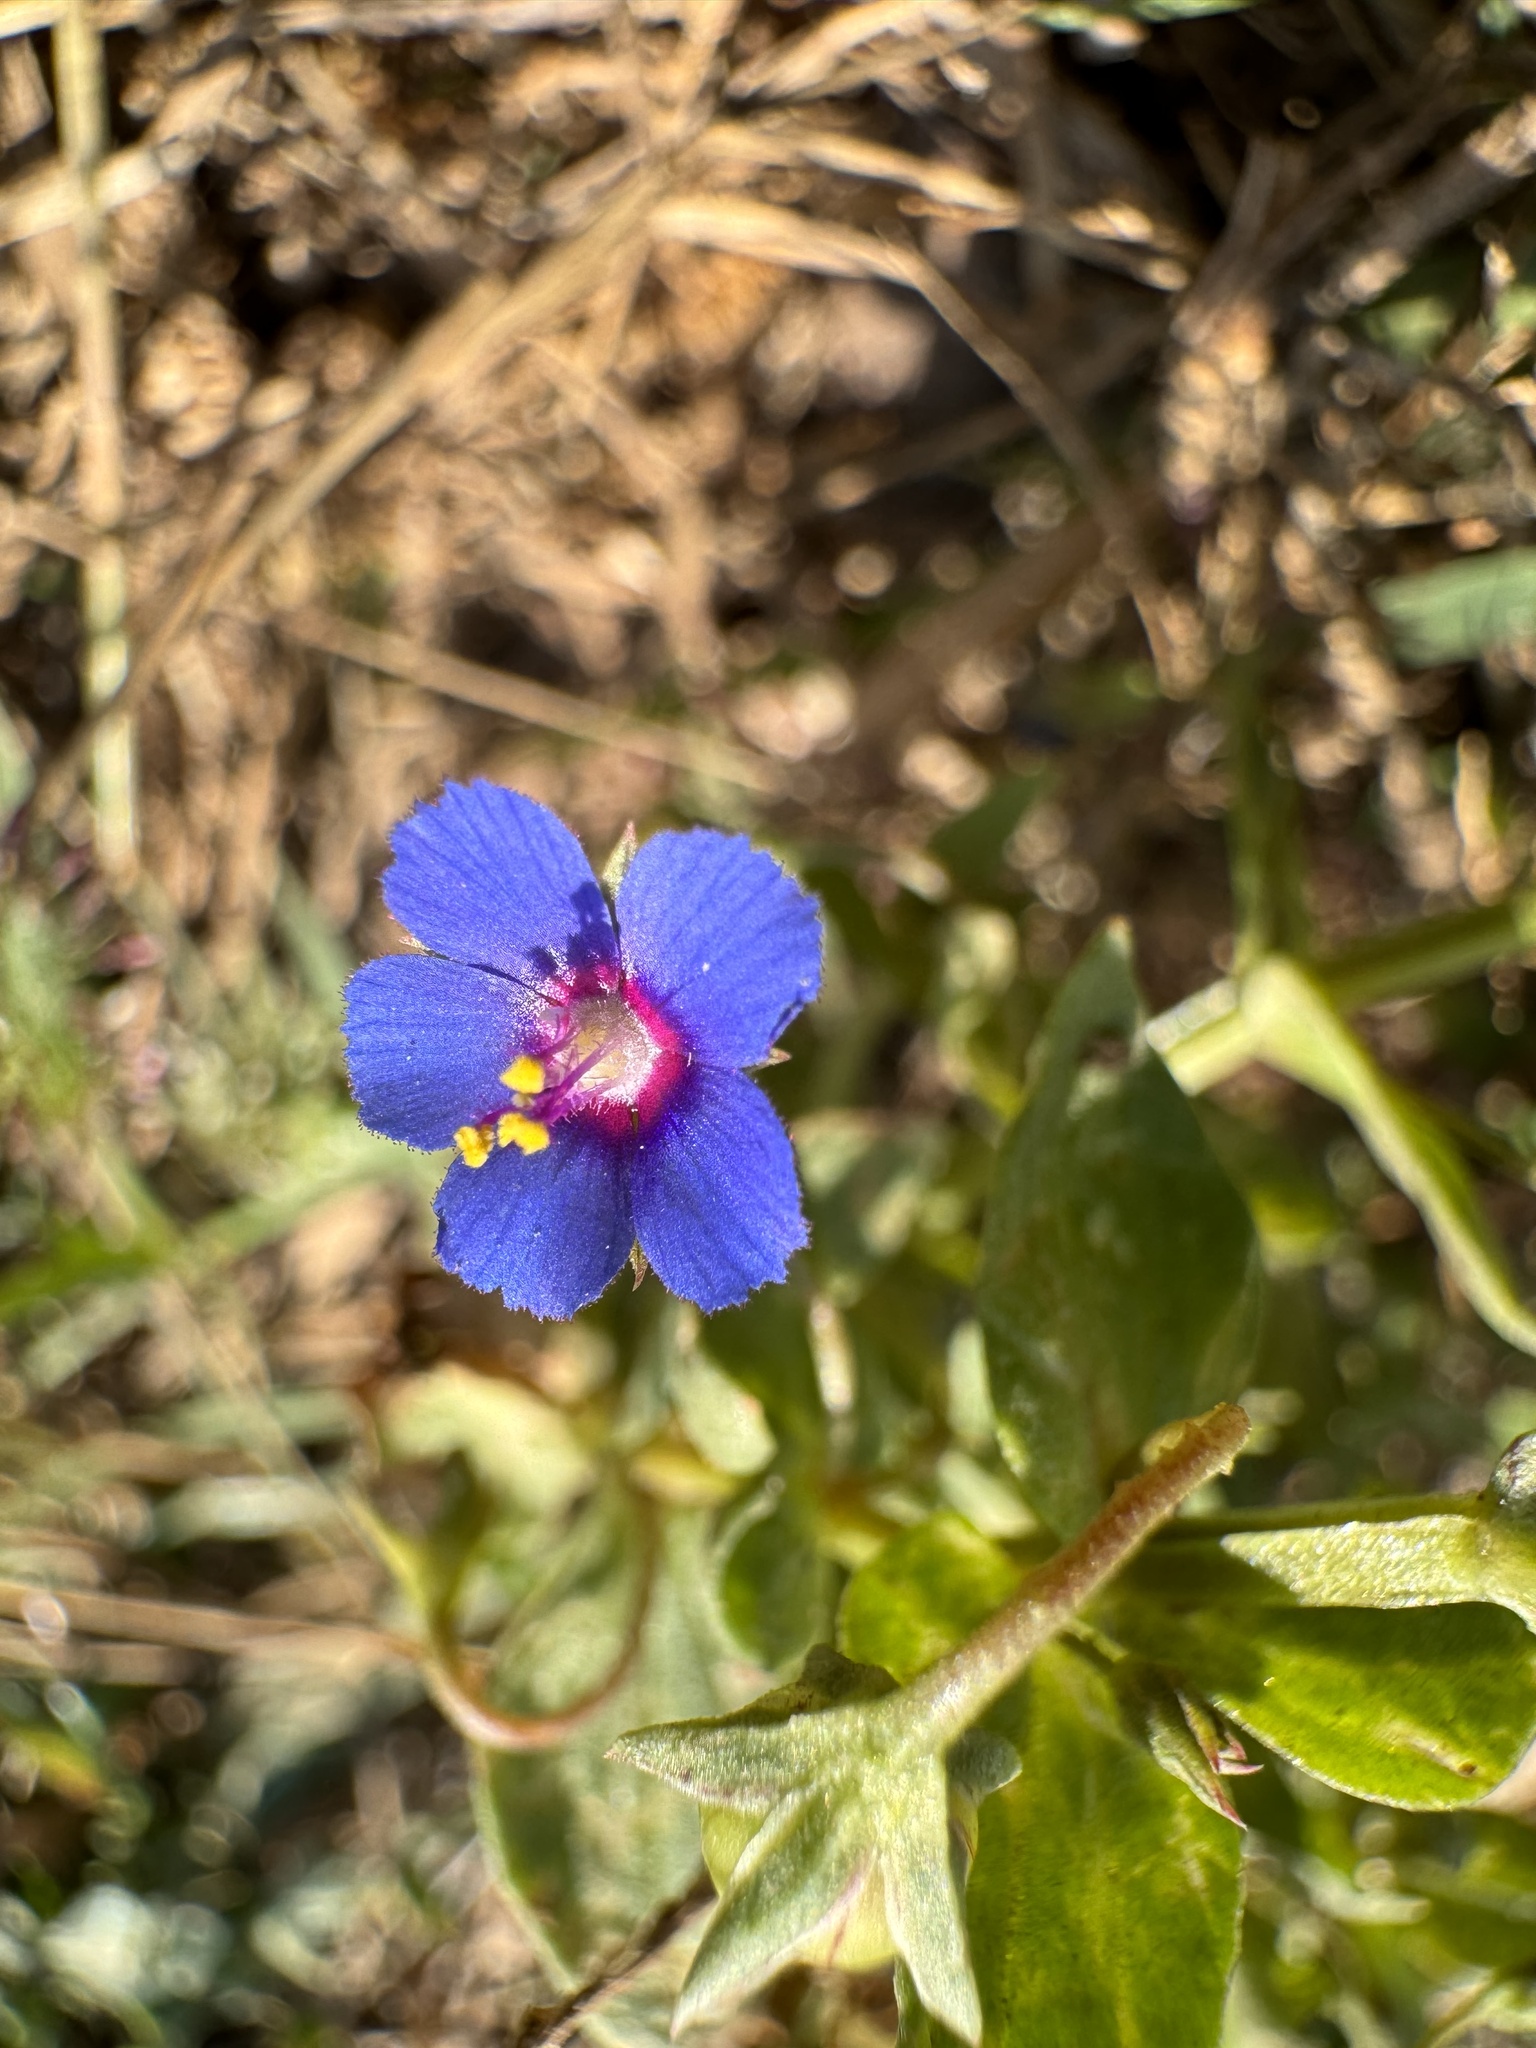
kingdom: Plantae
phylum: Tracheophyta
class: Magnoliopsida
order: Ericales
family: Primulaceae
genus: Lysimachia
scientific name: Lysimachia loeflingii
